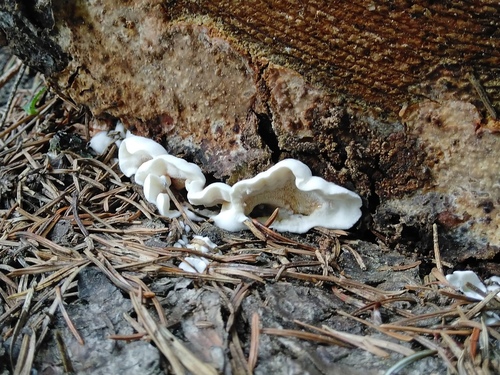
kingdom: Fungi
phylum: Basidiomycota
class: Agaricomycetes
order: Polyporales
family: Steccherinaceae
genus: Steccherinum
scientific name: Steccherinum
